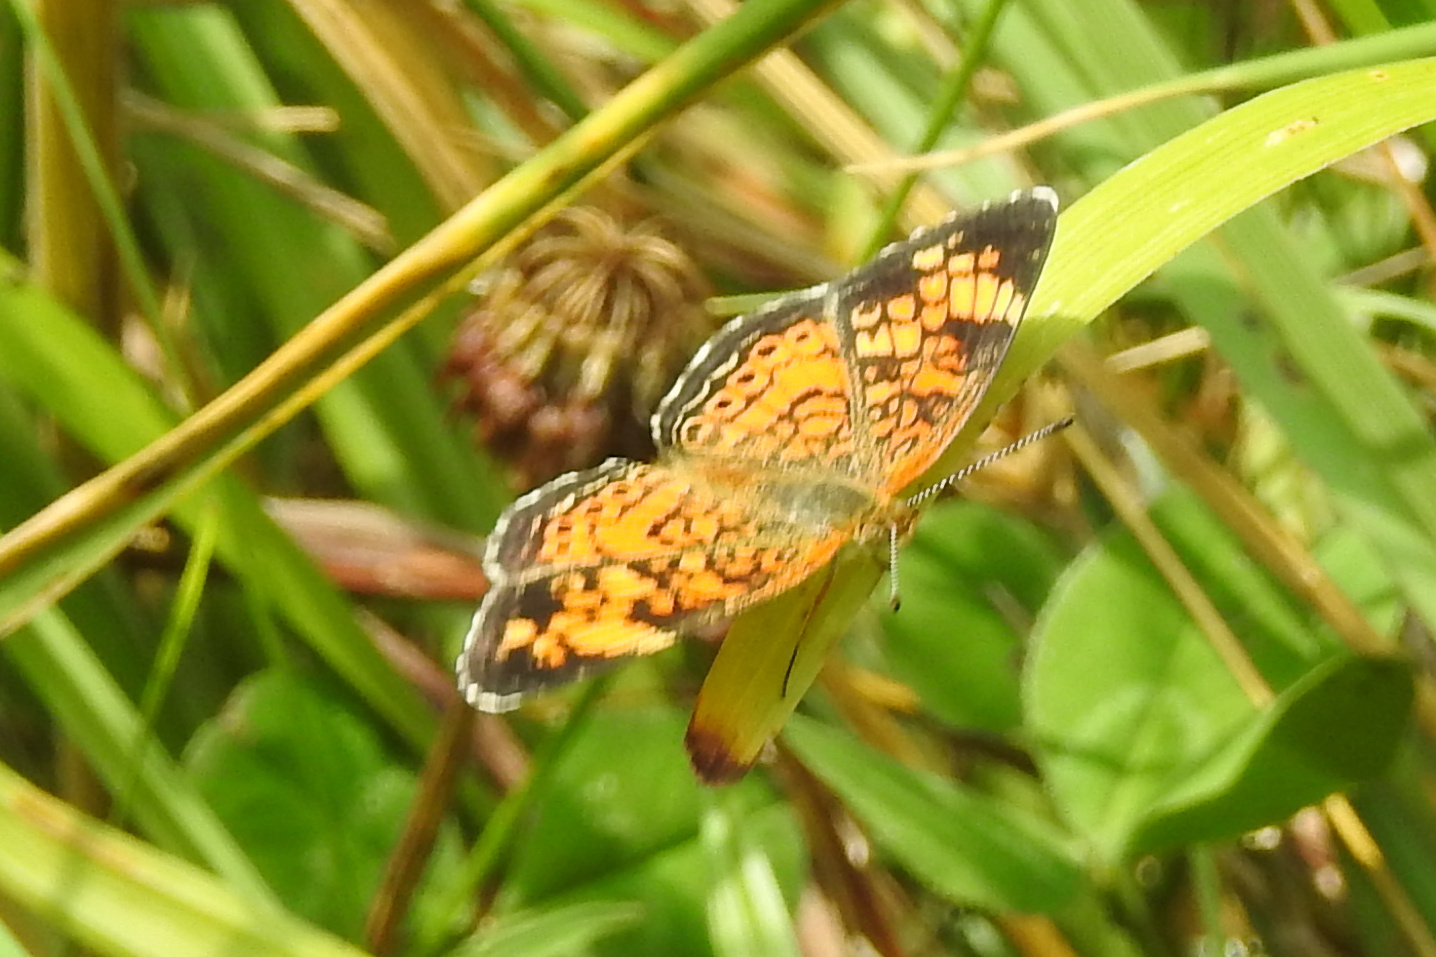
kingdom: Animalia
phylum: Arthropoda
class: Insecta
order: Lepidoptera
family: Nymphalidae
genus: Phyciodes
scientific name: Phyciodes tharos
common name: Pearl crescent
